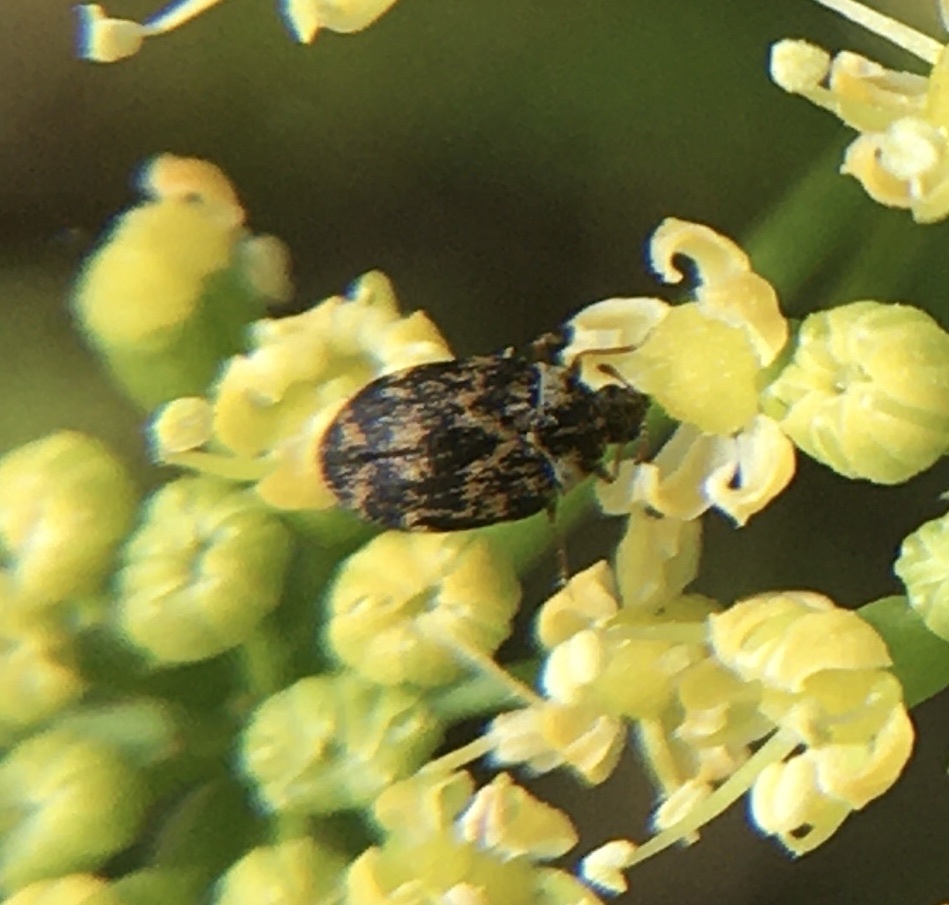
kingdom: Animalia
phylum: Arthropoda
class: Insecta
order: Coleoptera
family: Dermestidae
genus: Anthrenus
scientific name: Anthrenus fuscus
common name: Mill carpet beetle
